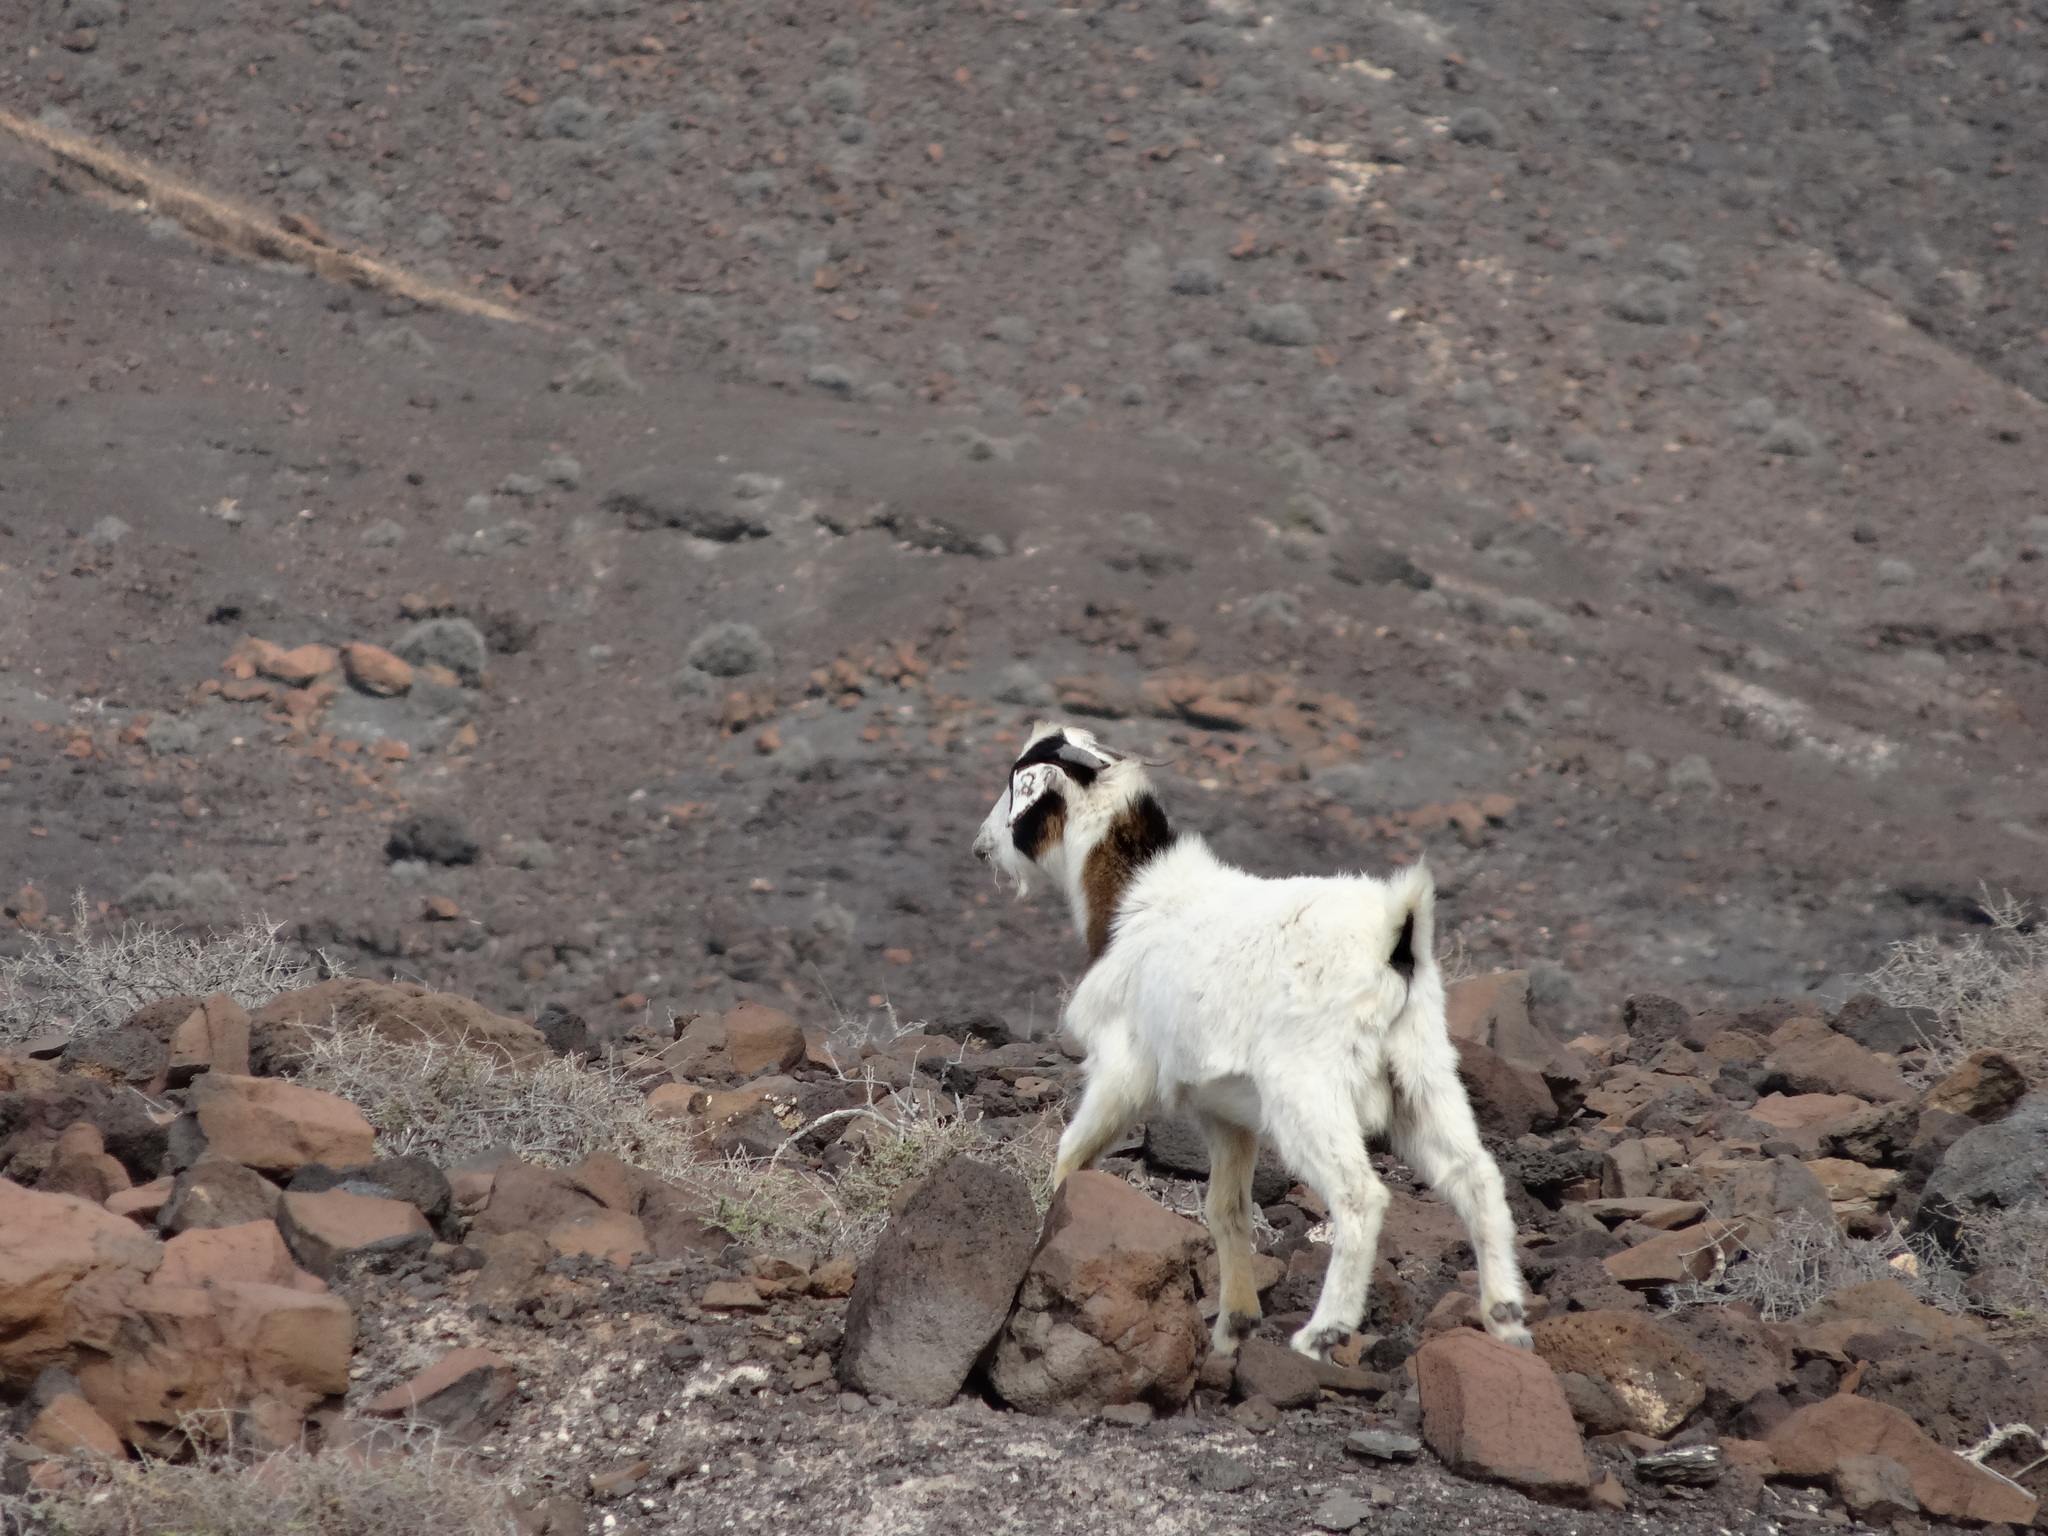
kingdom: Animalia
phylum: Chordata
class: Mammalia
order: Artiodactyla
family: Bovidae
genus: Capra
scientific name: Capra hircus
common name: Domestic goat
